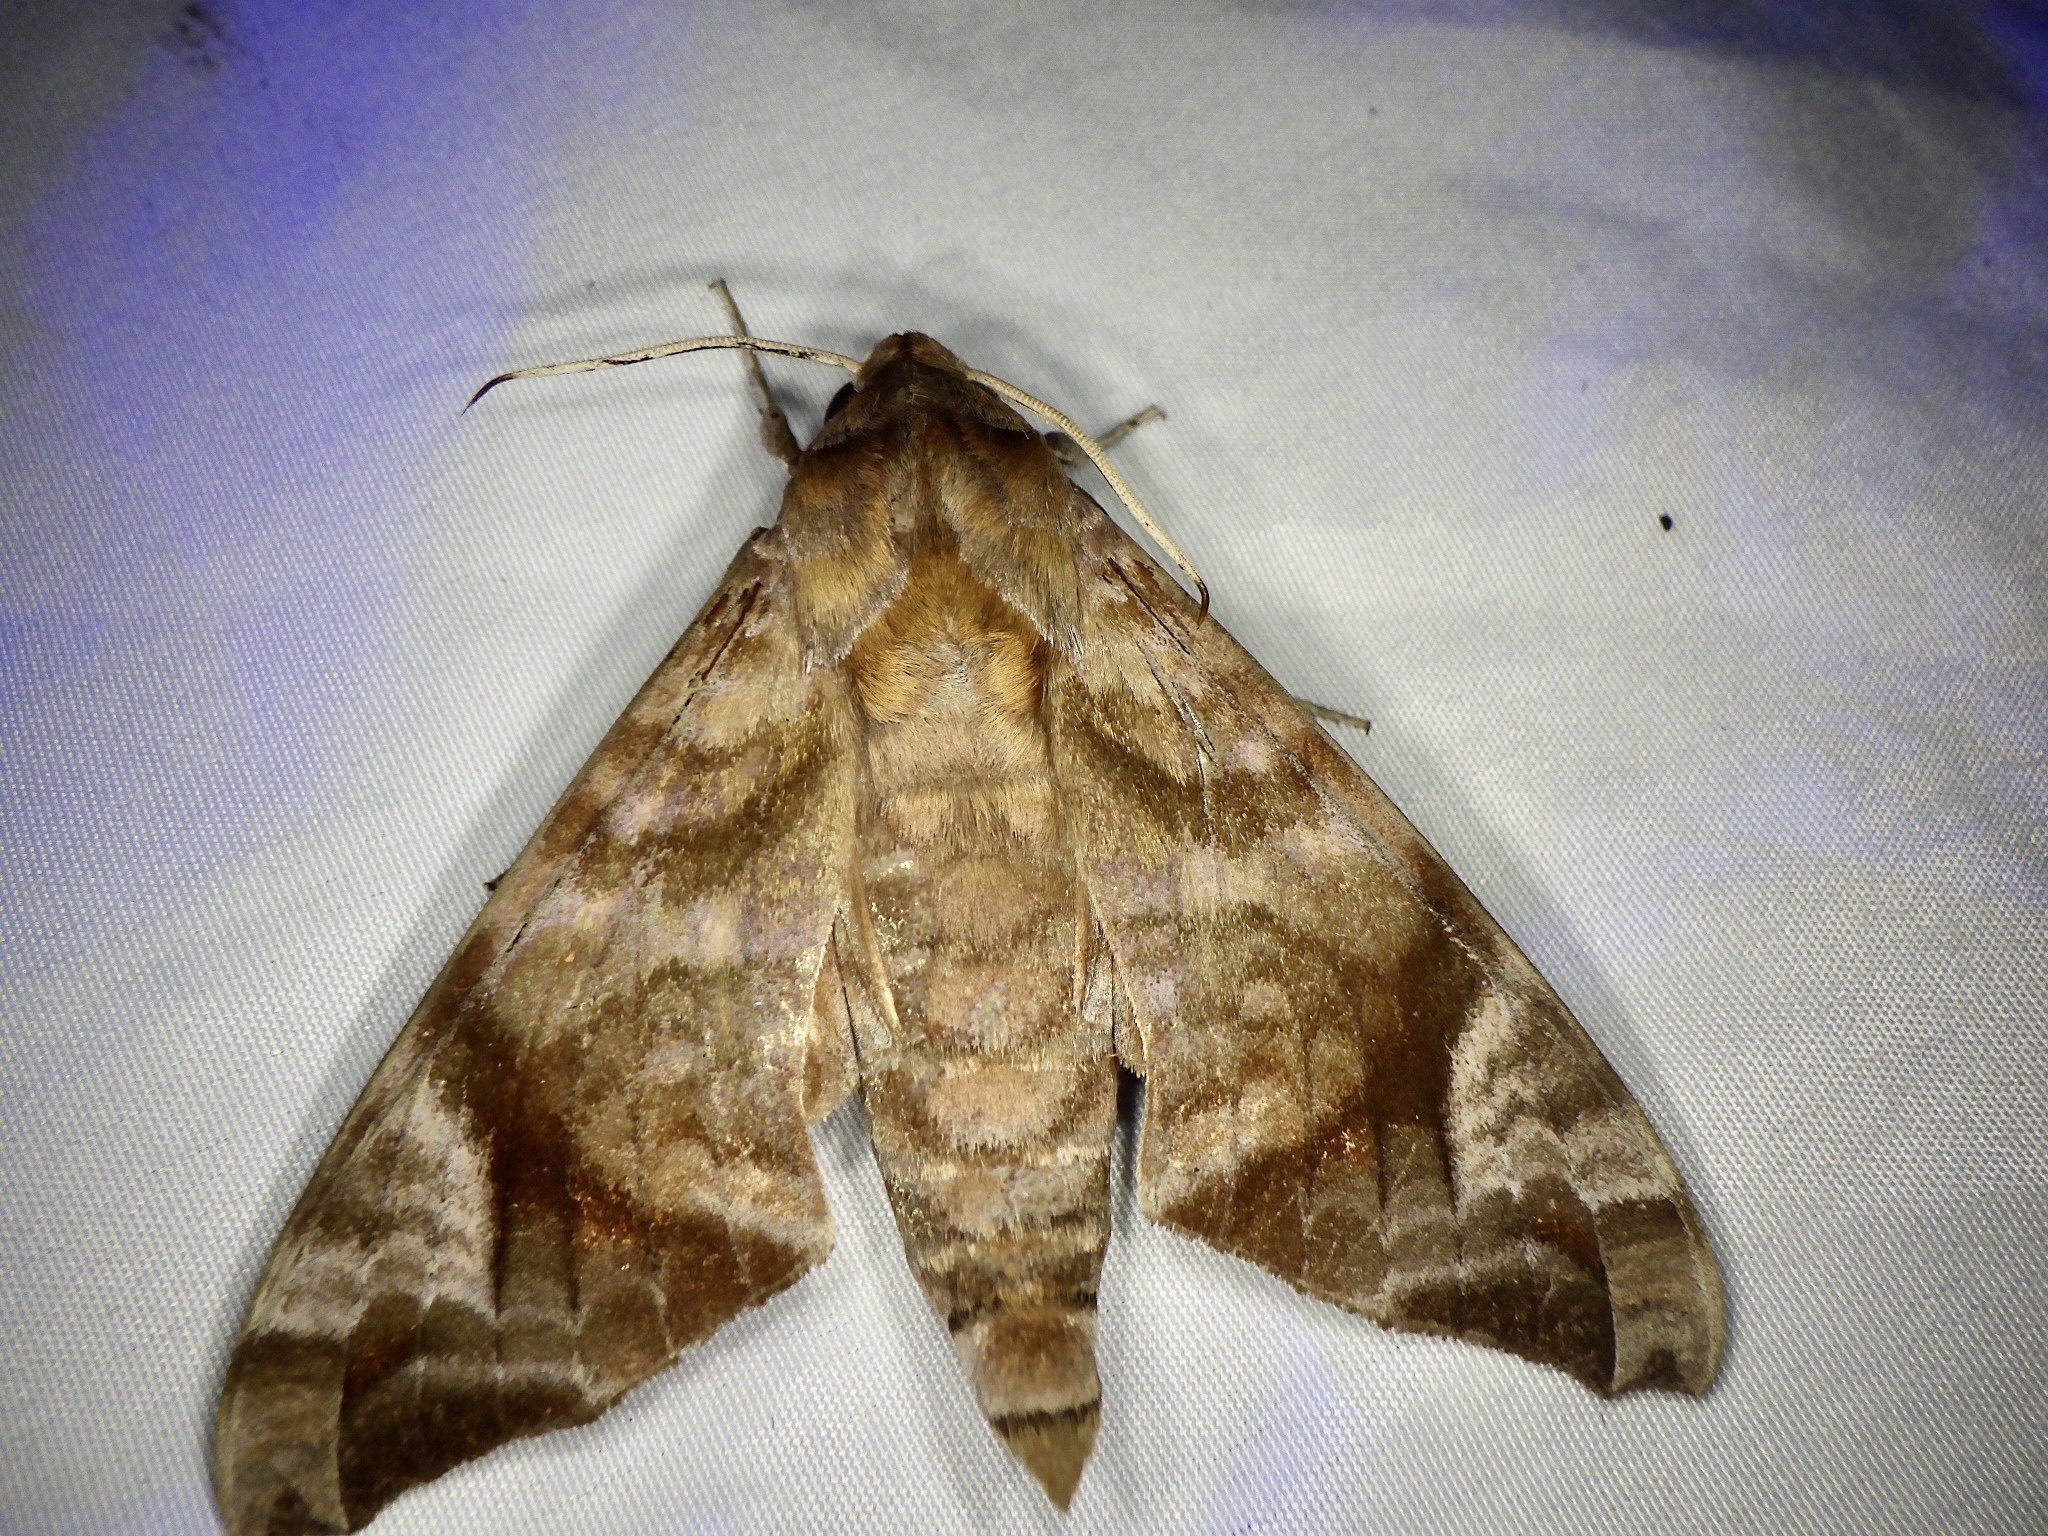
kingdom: Animalia
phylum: Arthropoda
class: Insecta
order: Lepidoptera
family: Sphingidae
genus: Acosmeryx
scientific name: Acosmeryx castanea
